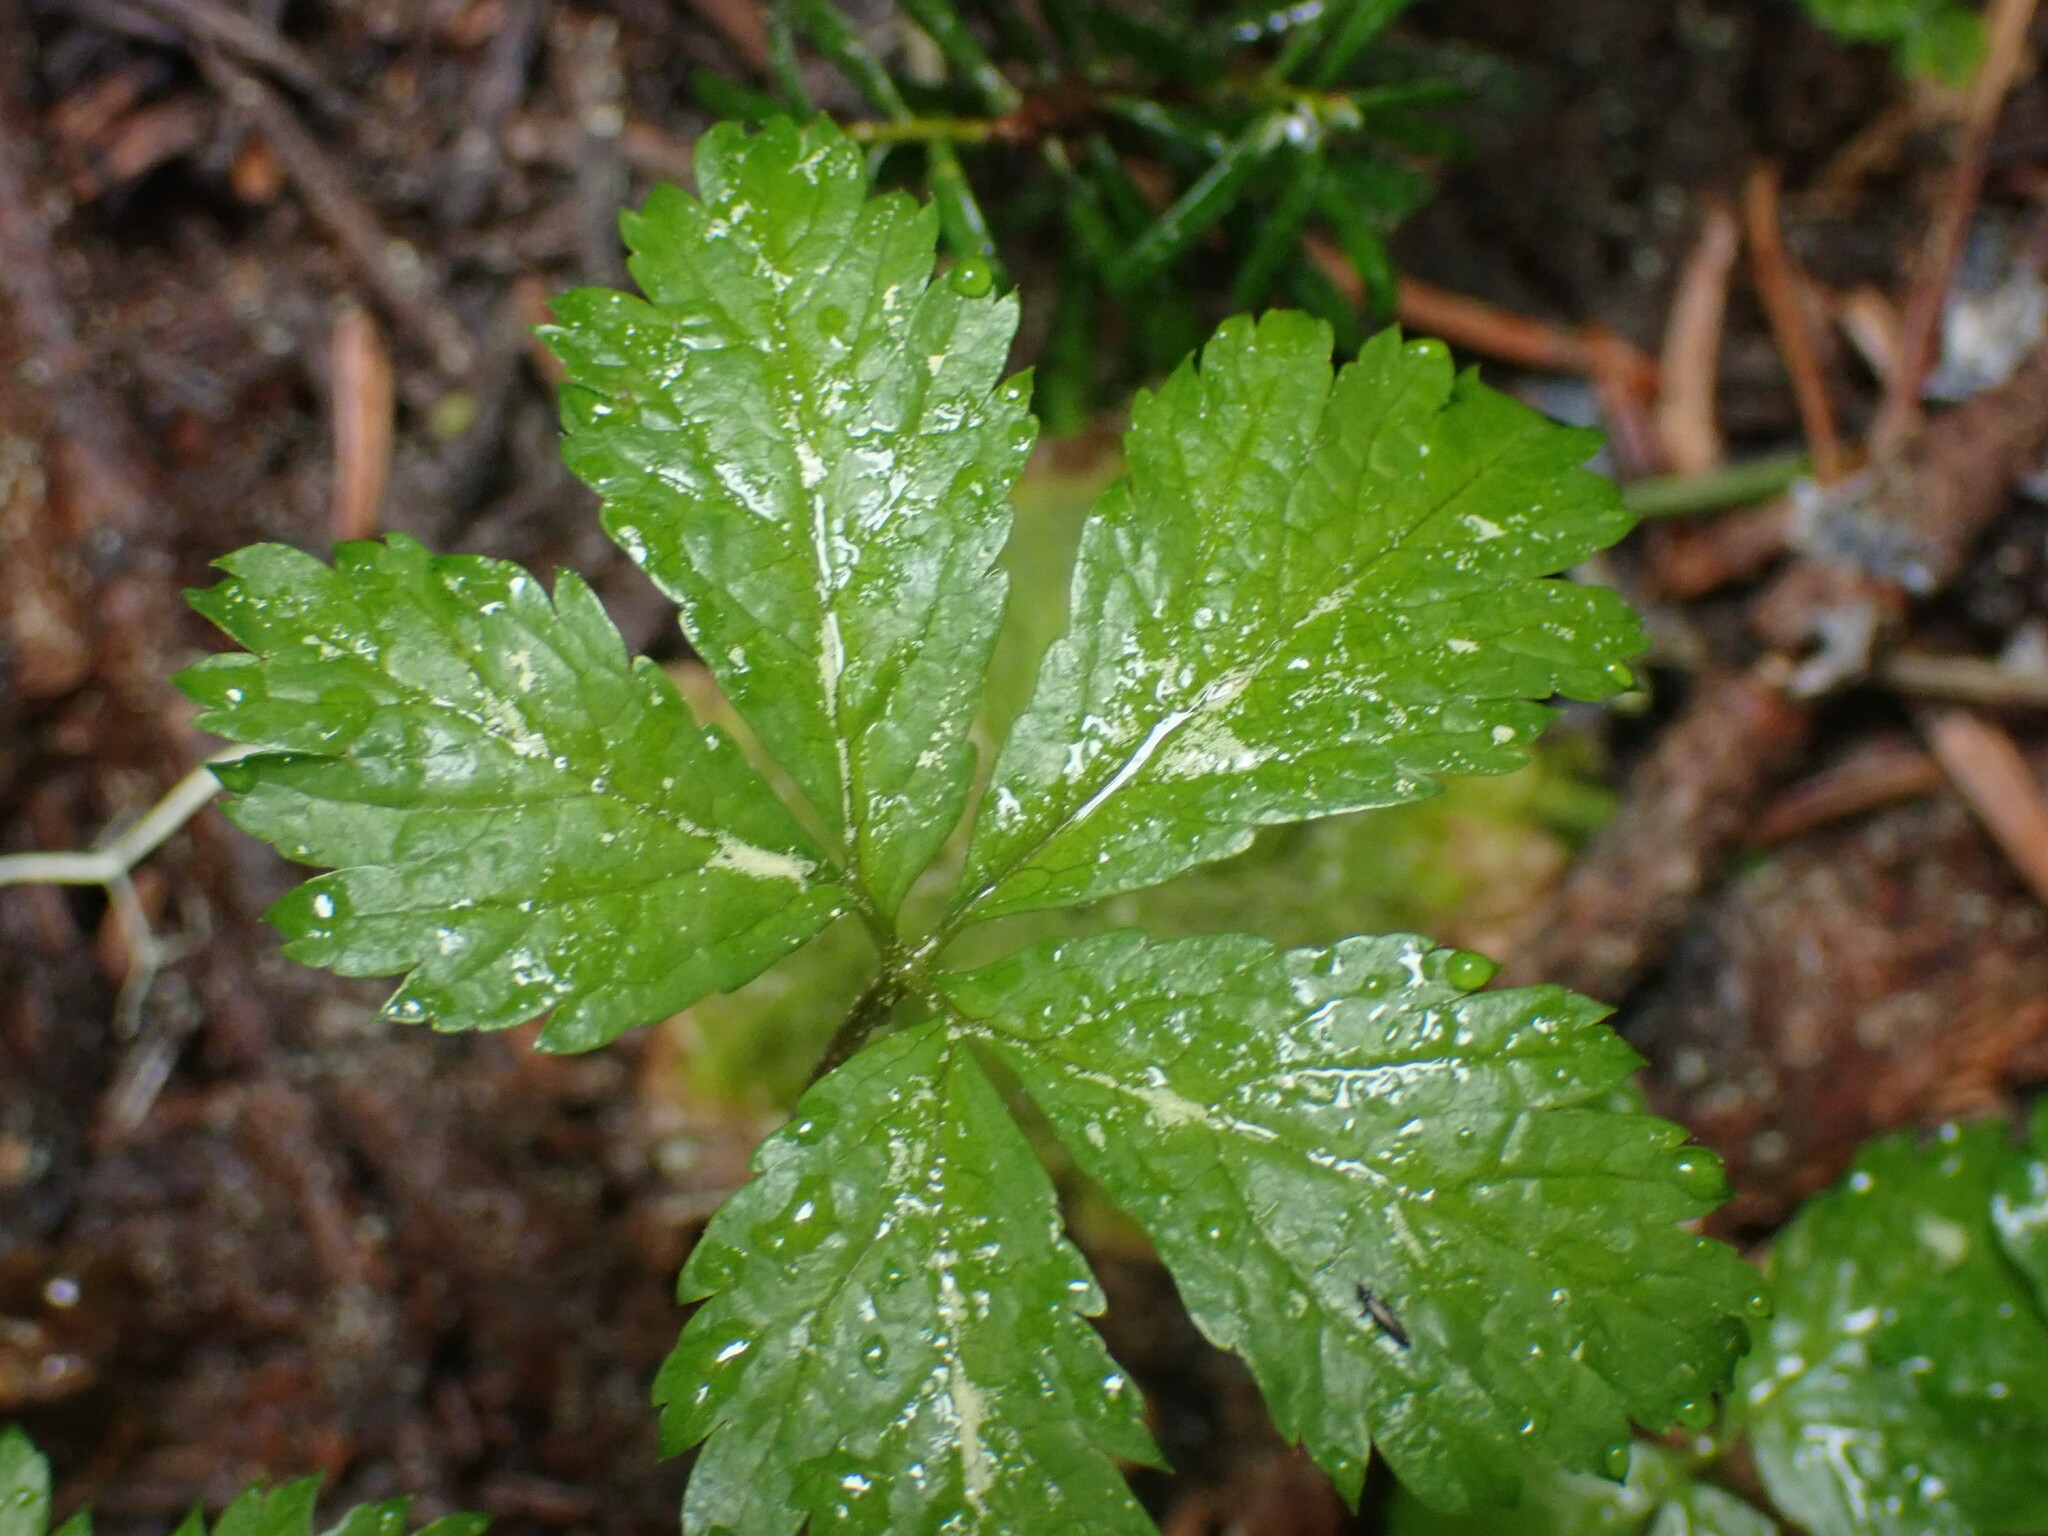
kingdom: Plantae
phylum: Tracheophyta
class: Magnoliopsida
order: Rosales
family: Rosaceae
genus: Rubus
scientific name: Rubus pedatus
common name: Creeping raspberry
